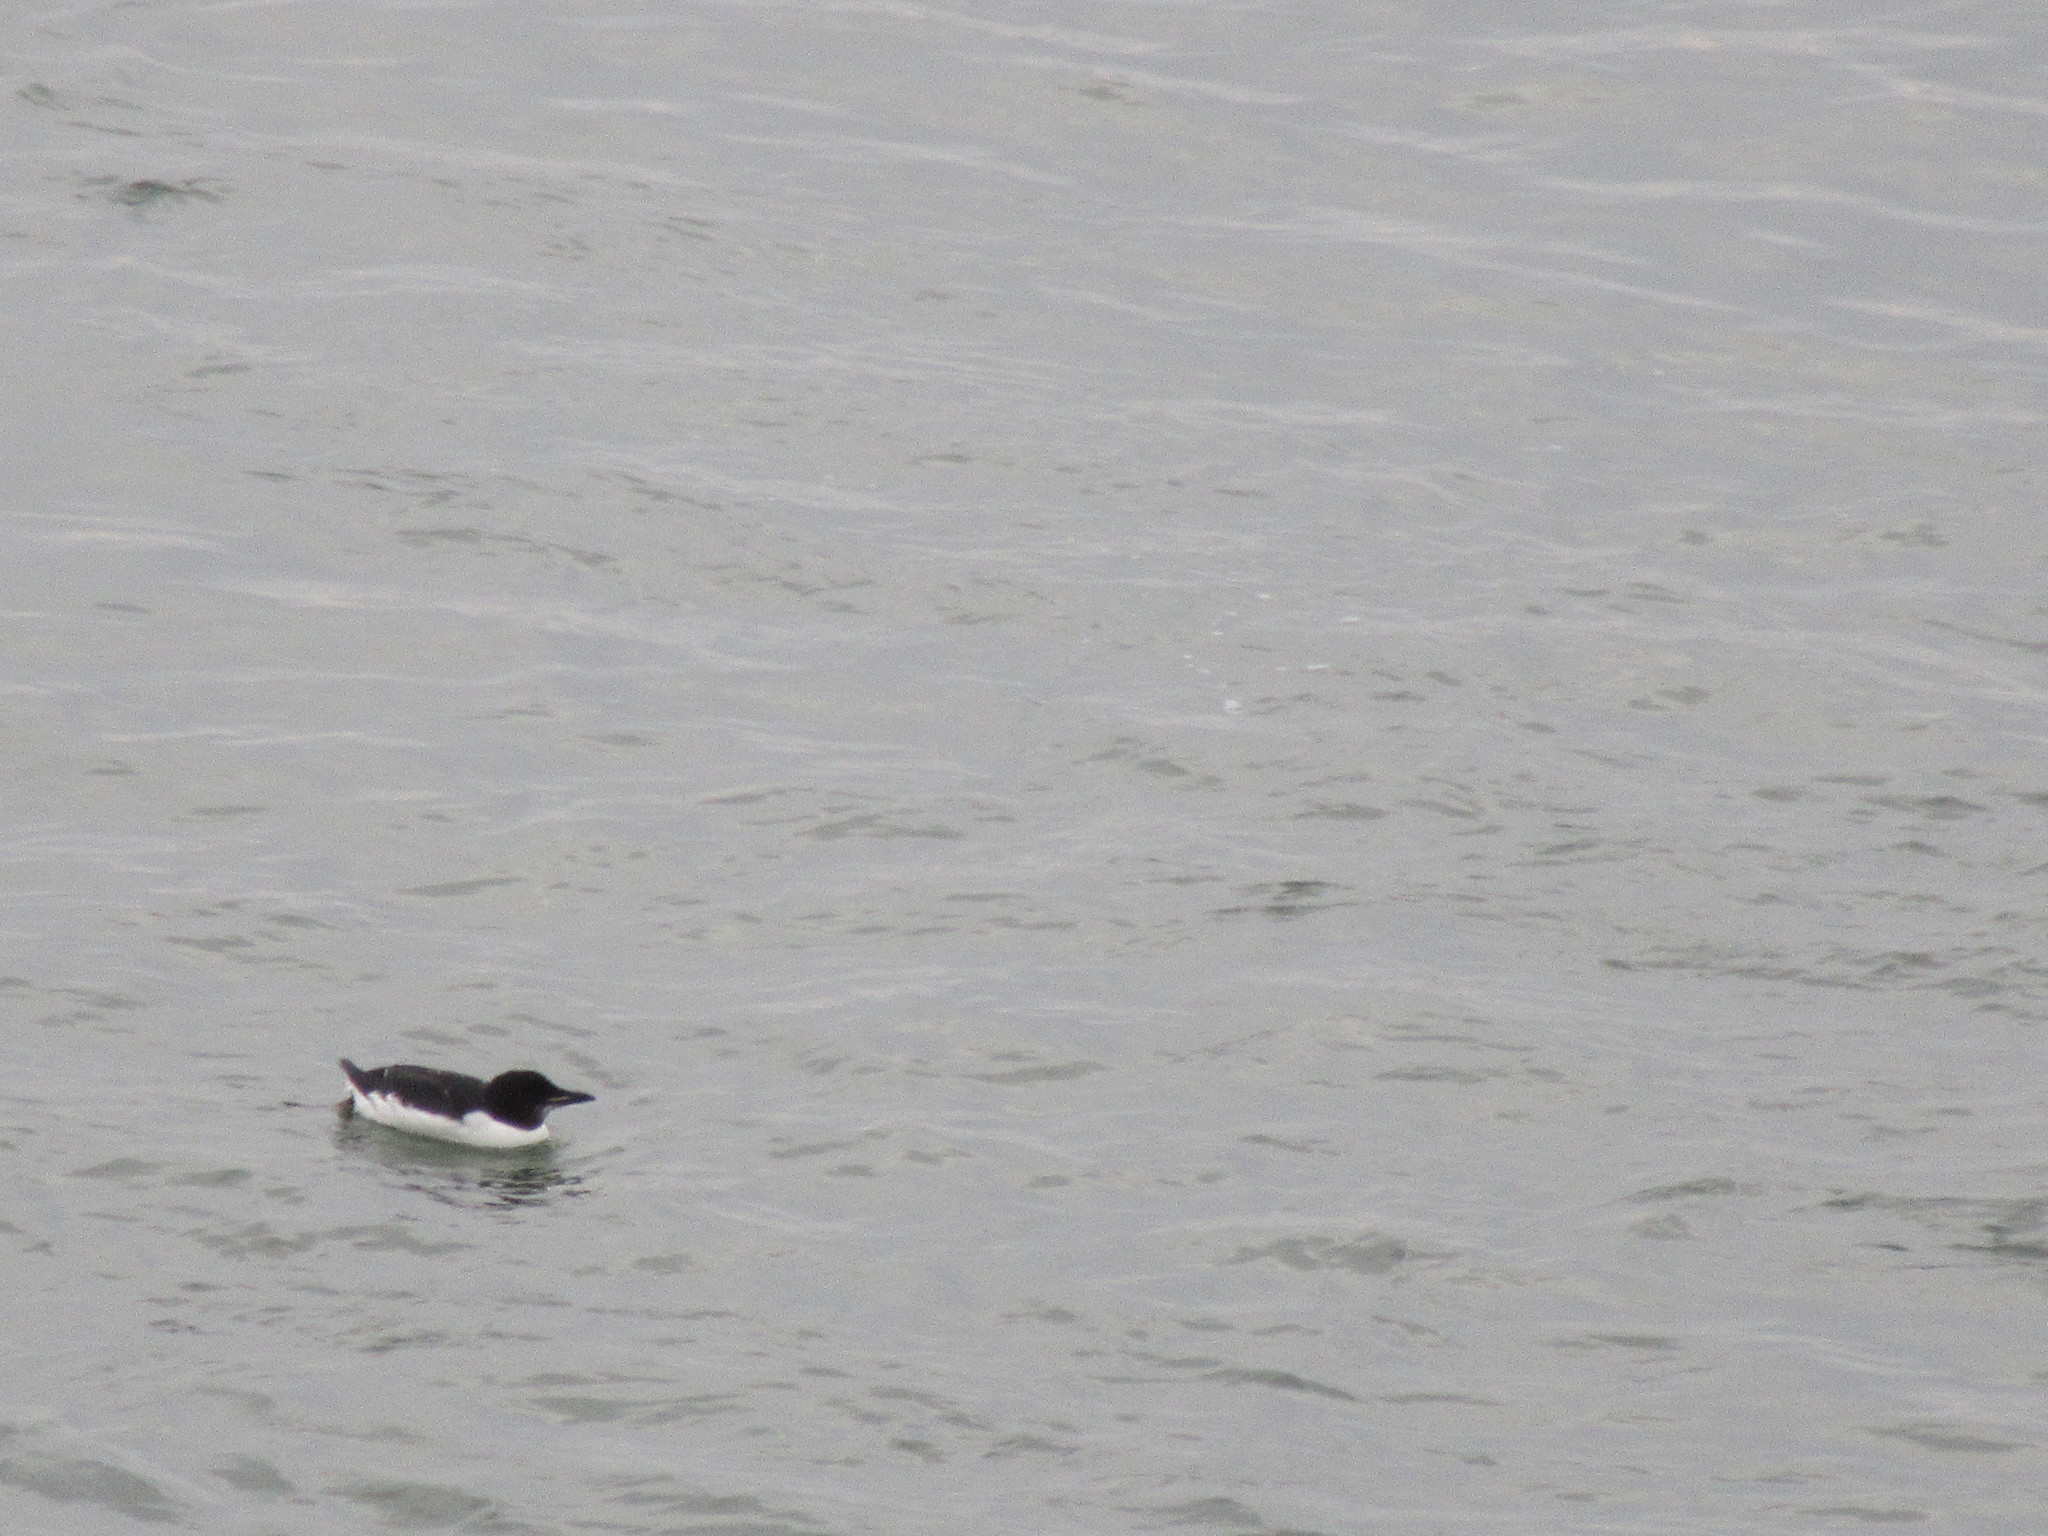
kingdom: Animalia
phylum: Chordata
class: Aves
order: Charadriiformes
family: Alcidae
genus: Uria
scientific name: Uria lomvia
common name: Thick-billed murre
